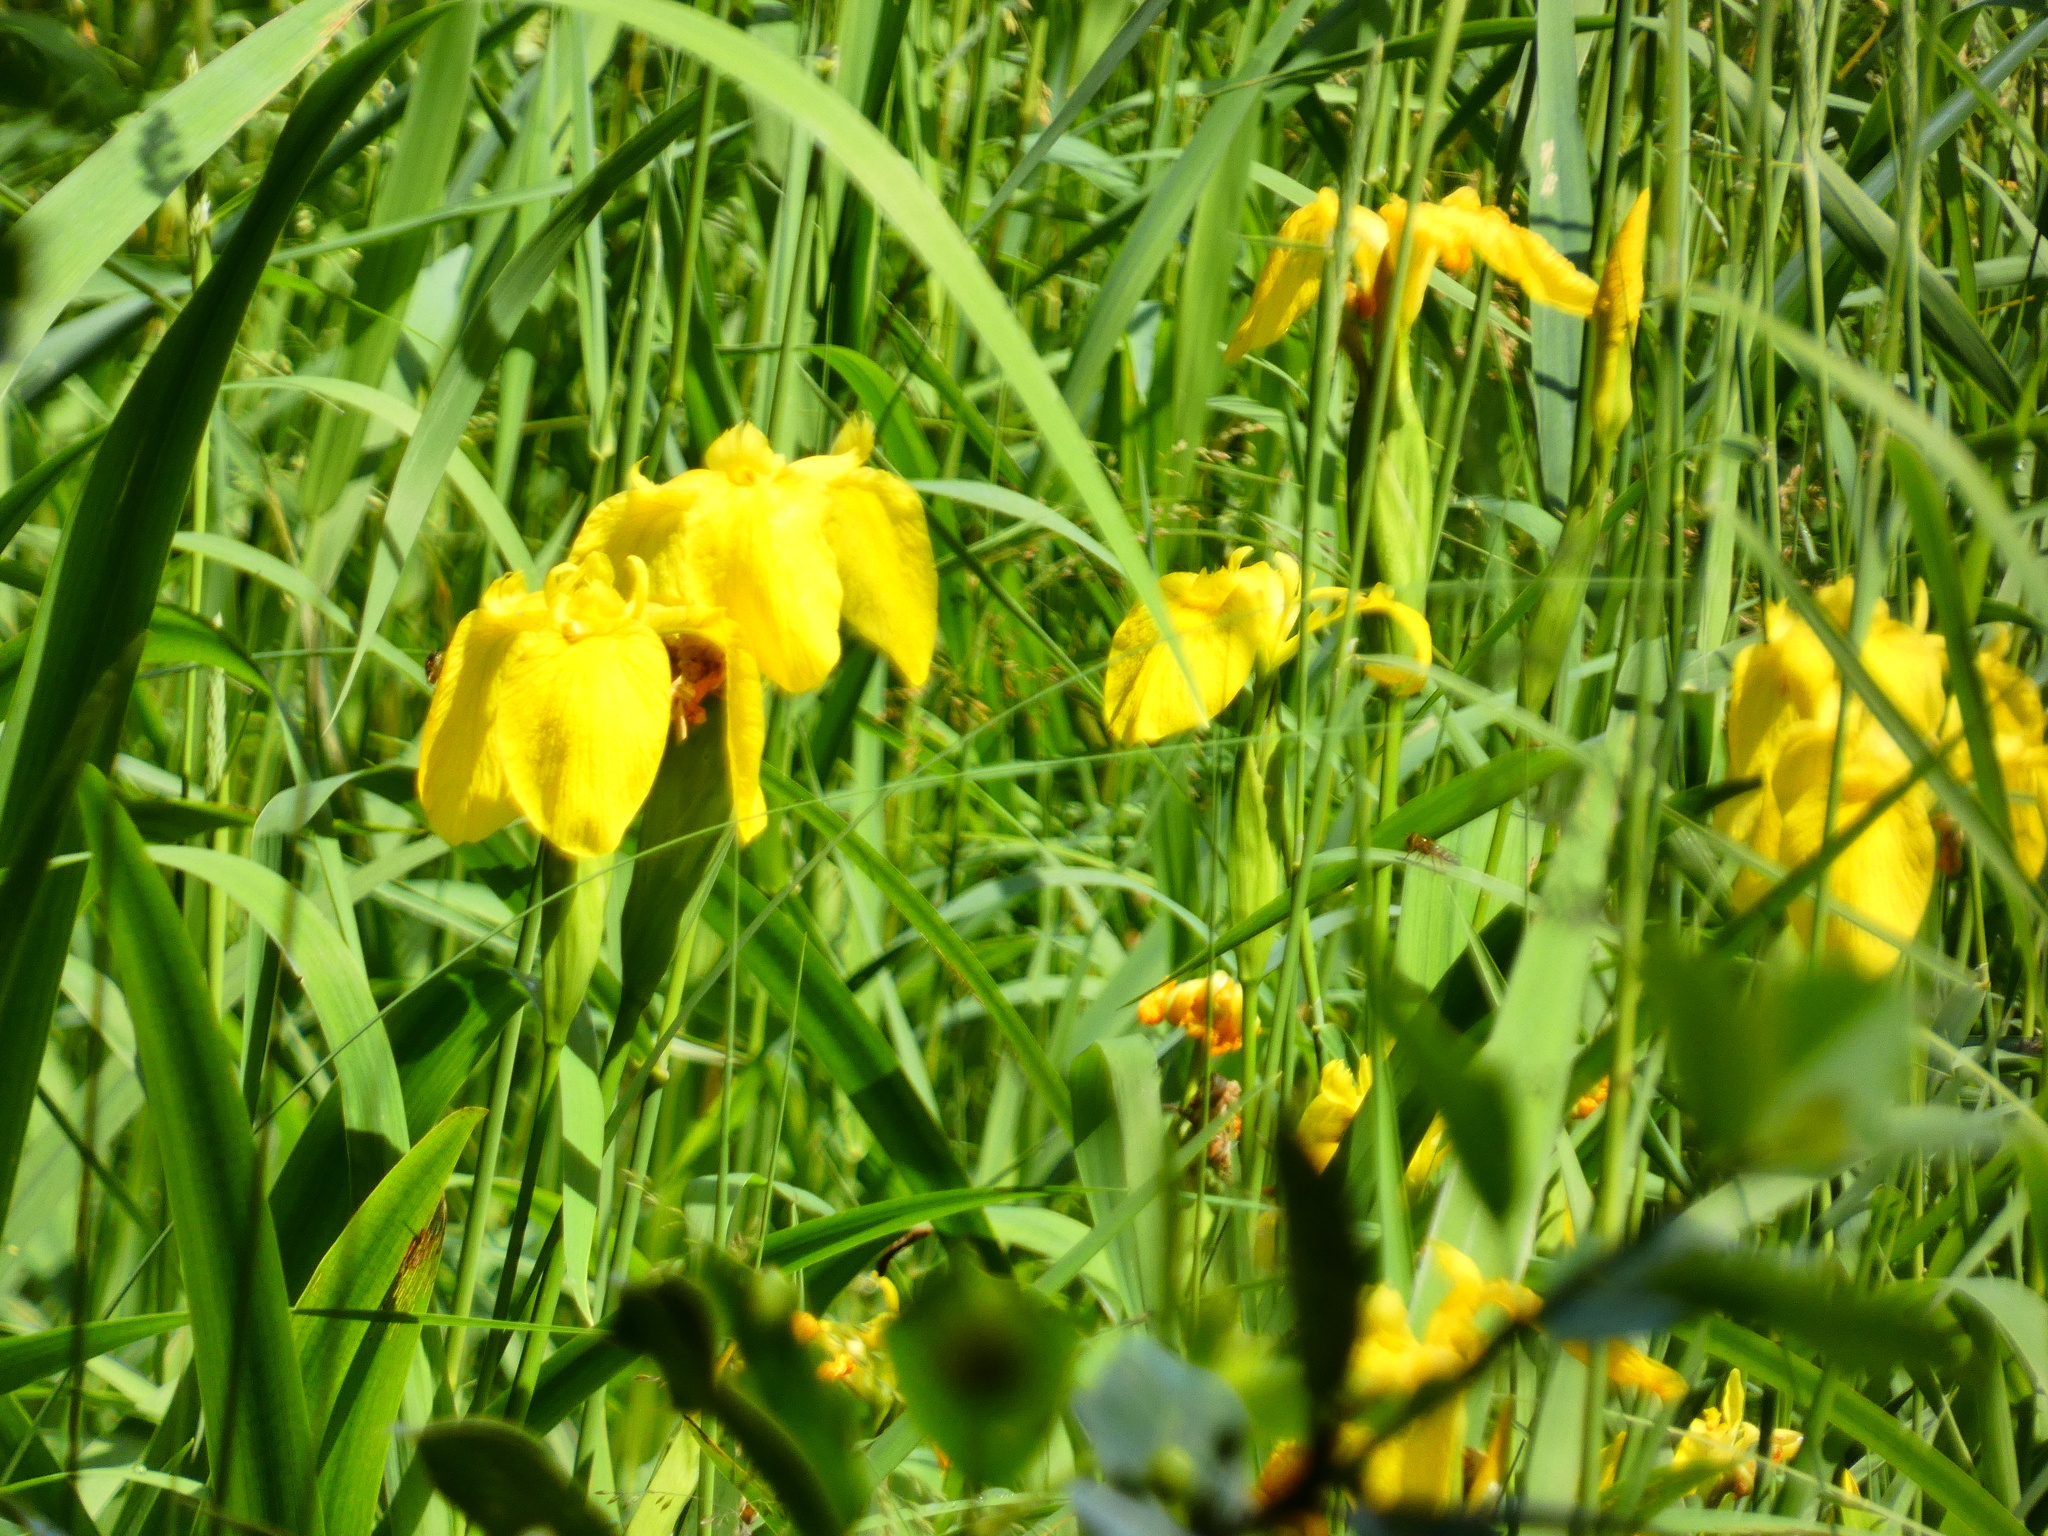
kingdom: Plantae
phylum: Tracheophyta
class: Liliopsida
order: Asparagales
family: Iridaceae
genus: Iris
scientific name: Iris pseudacorus
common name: Yellow flag
